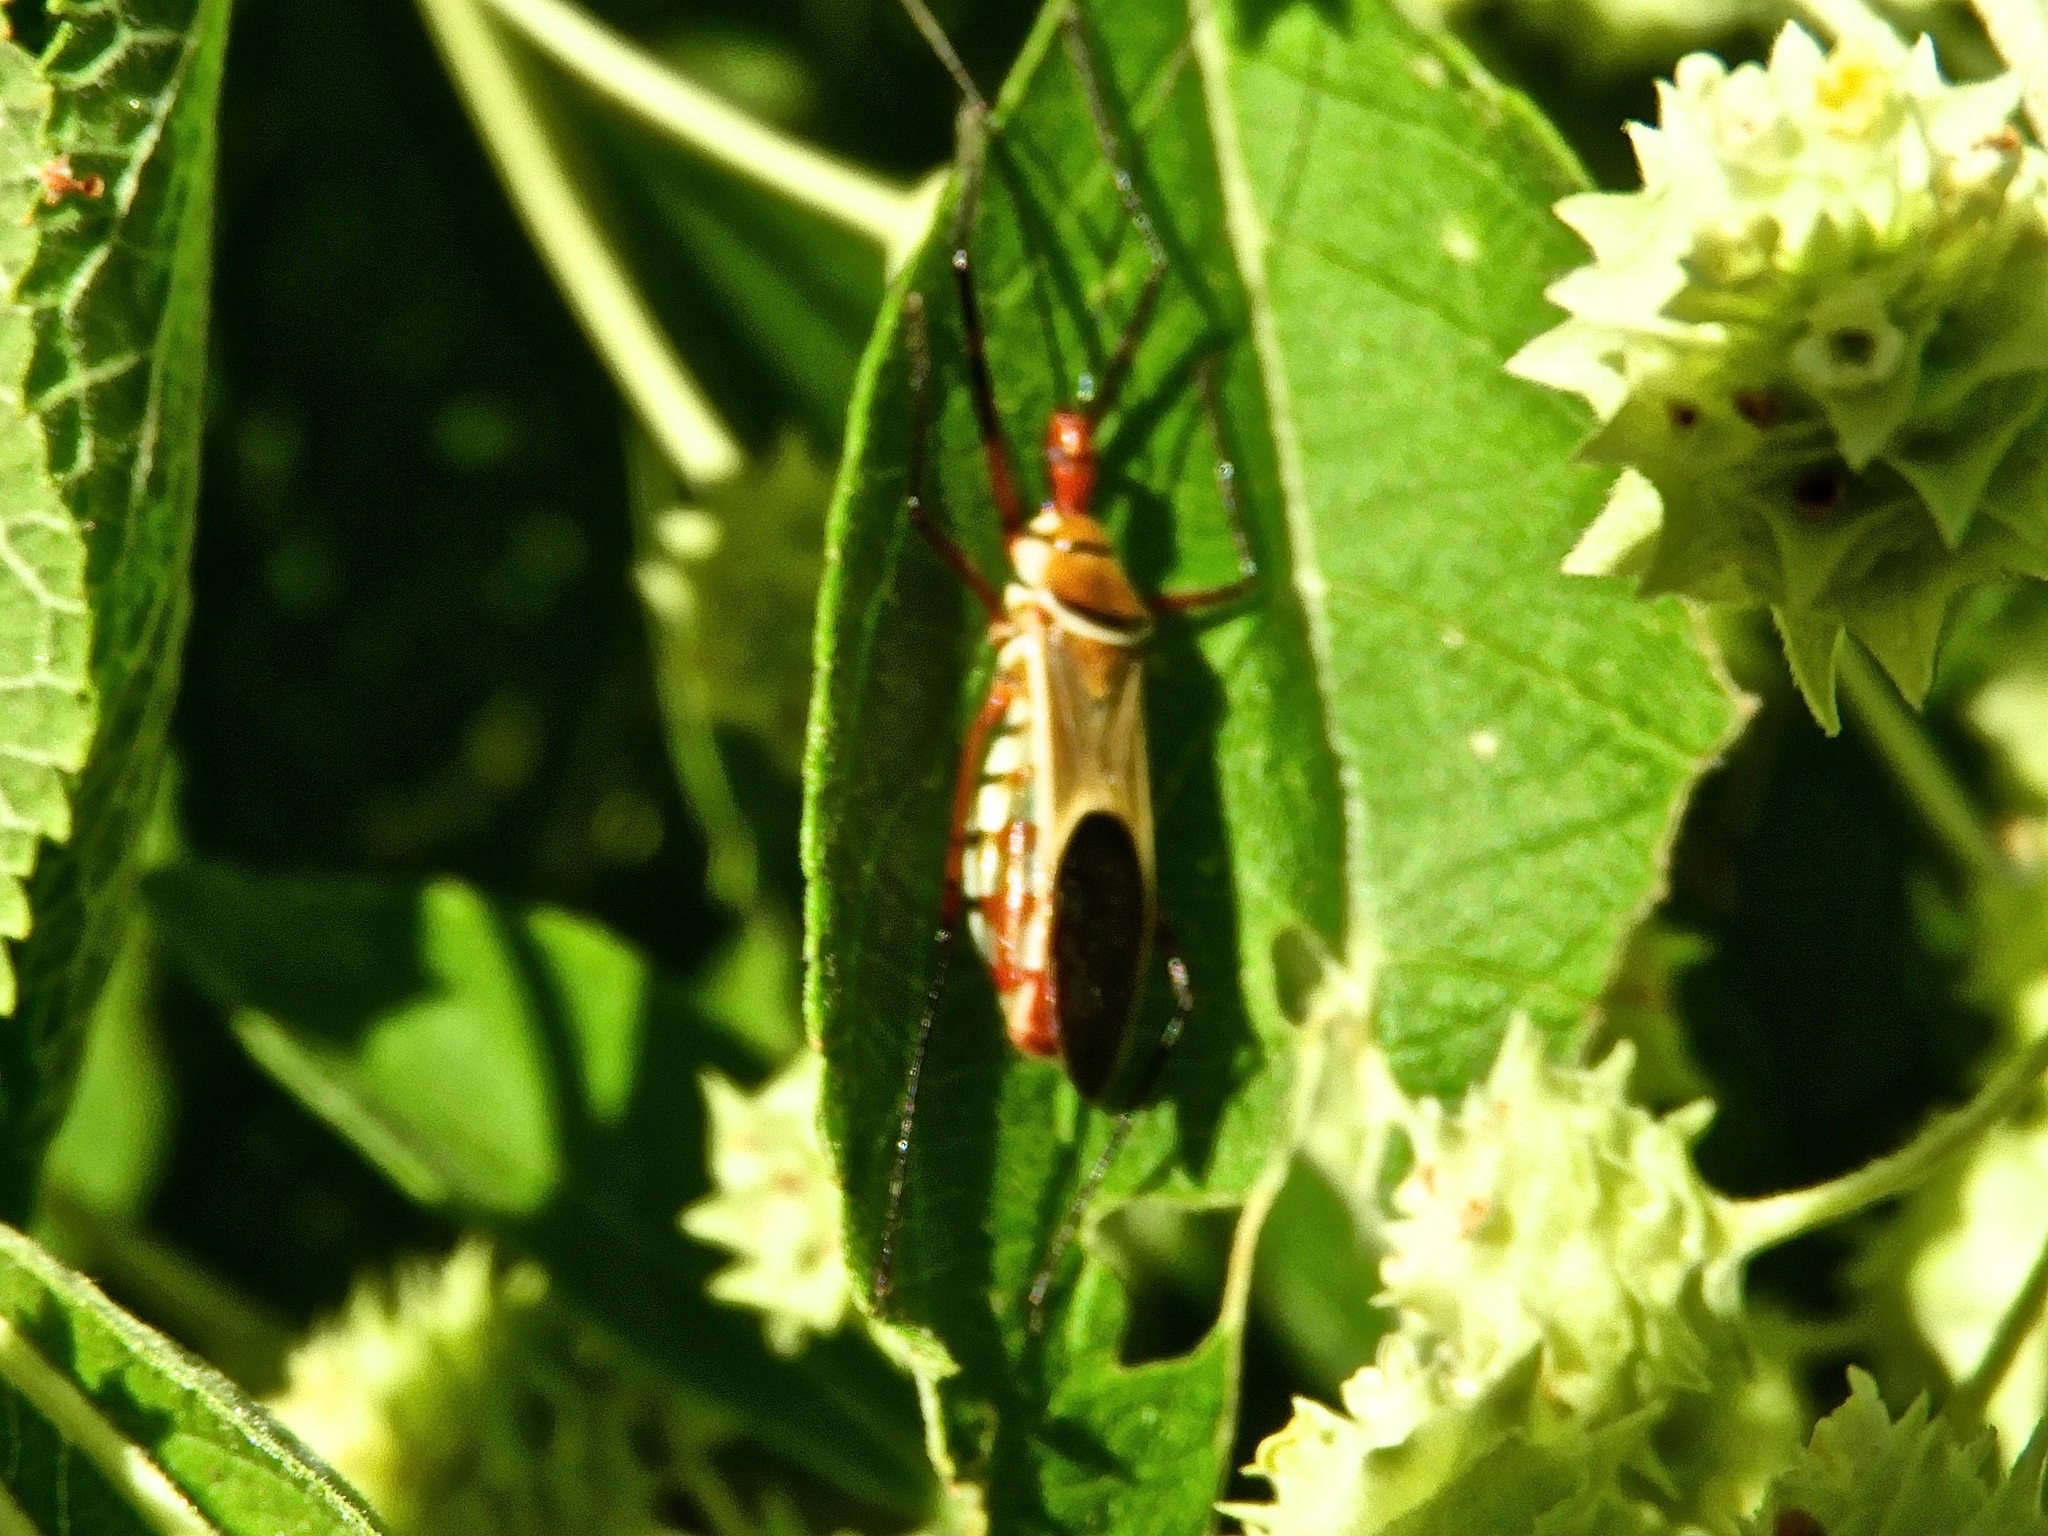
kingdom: Animalia
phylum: Arthropoda
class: Insecta
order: Hemiptera
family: Reduviidae
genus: Zelus
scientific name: Zelus grassans
